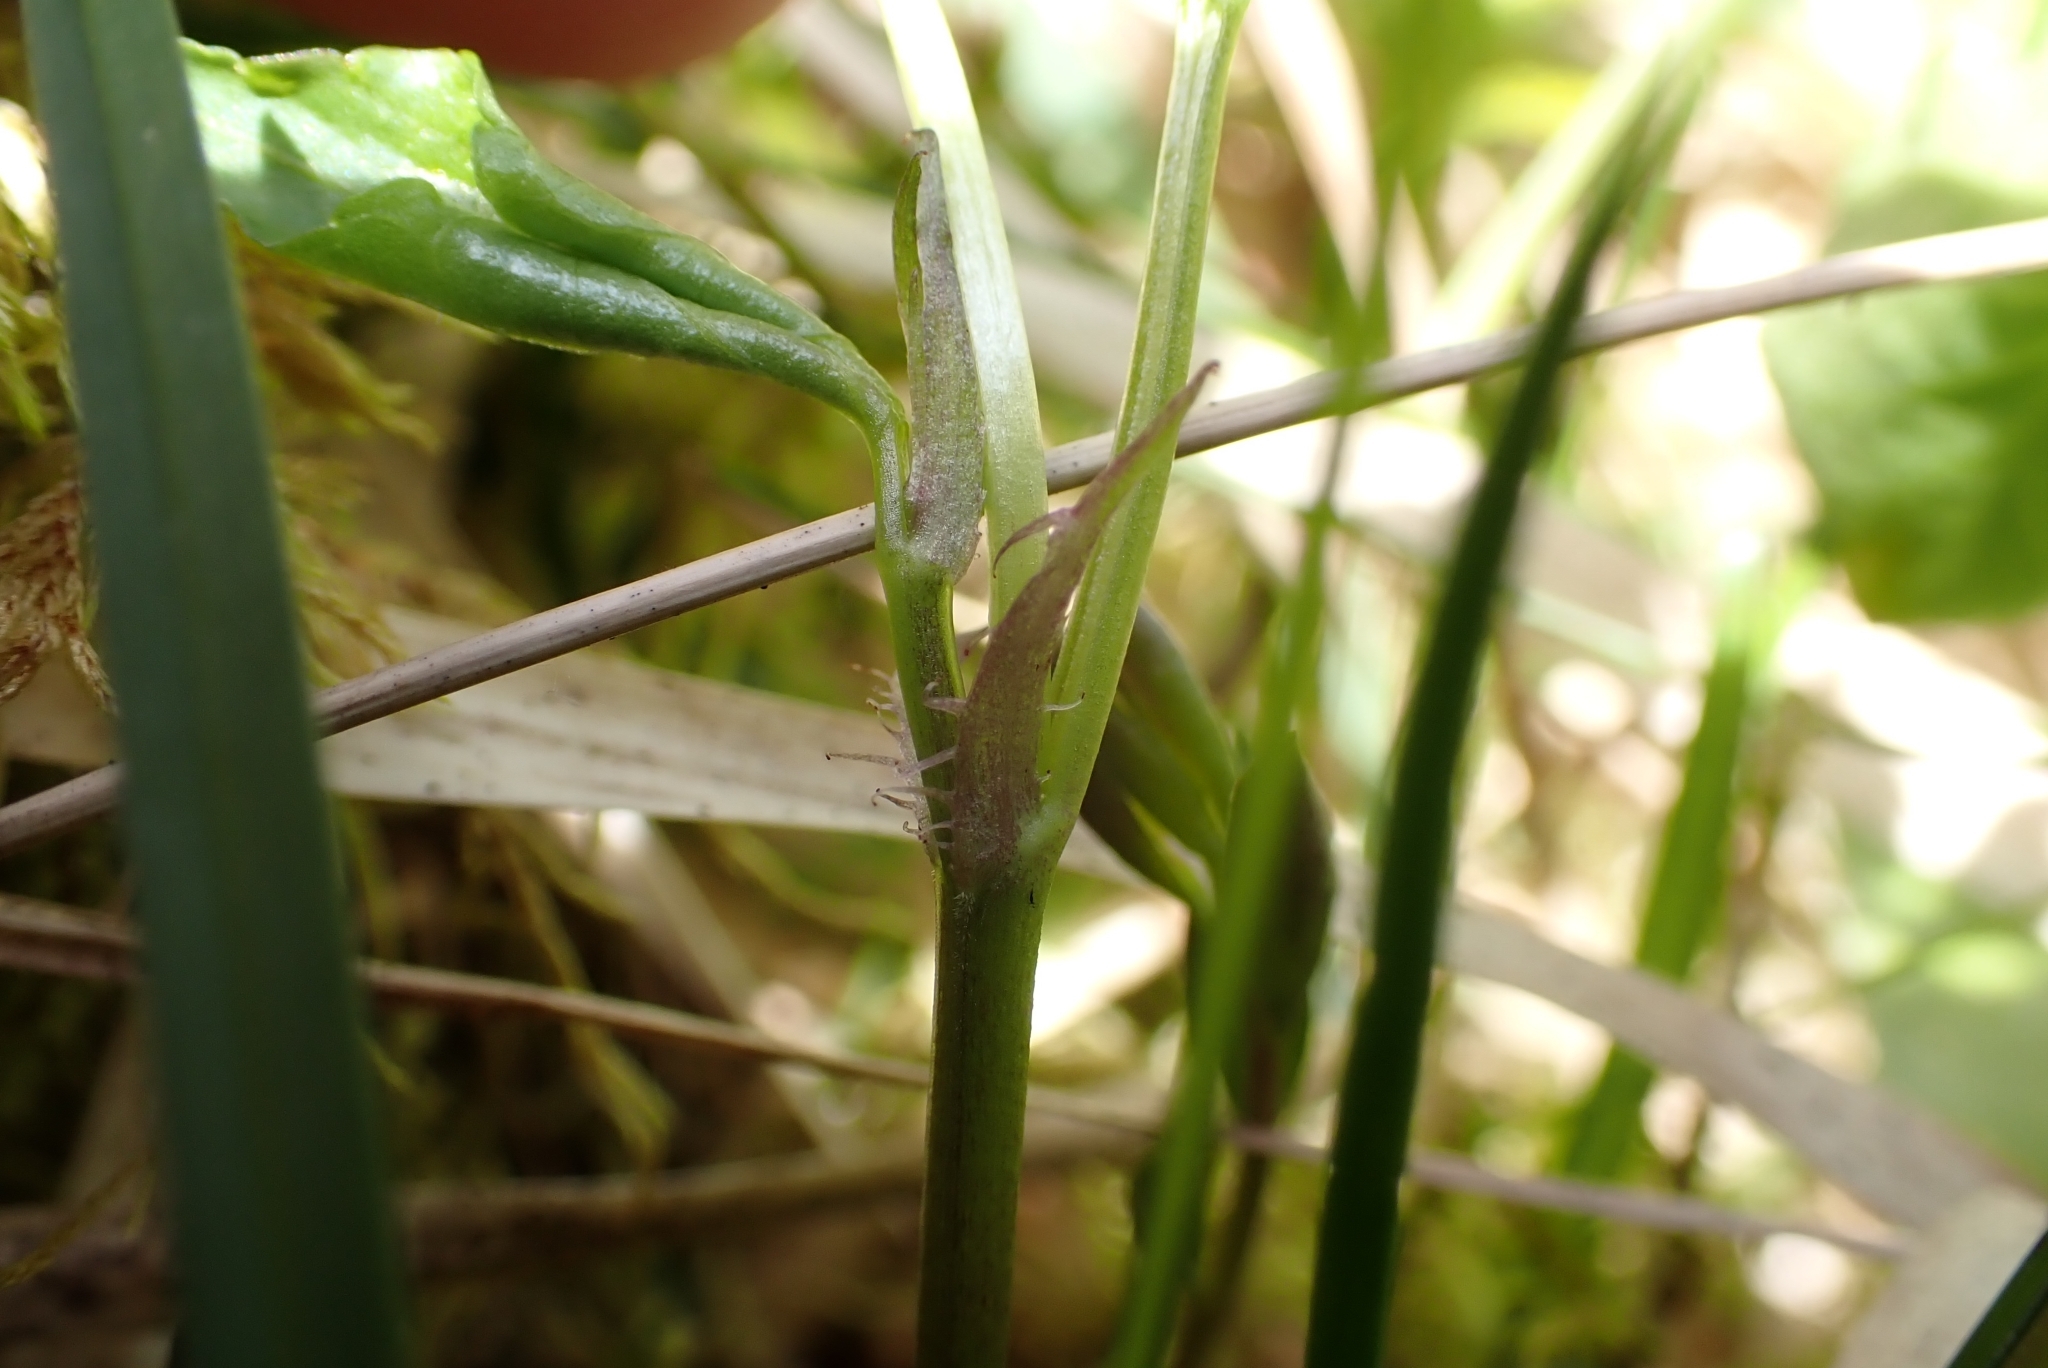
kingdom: Plantae
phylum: Tracheophyta
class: Magnoliopsida
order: Malpighiales
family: Violaceae
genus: Viola
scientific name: Viola riviniana
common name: Common dog-violet
